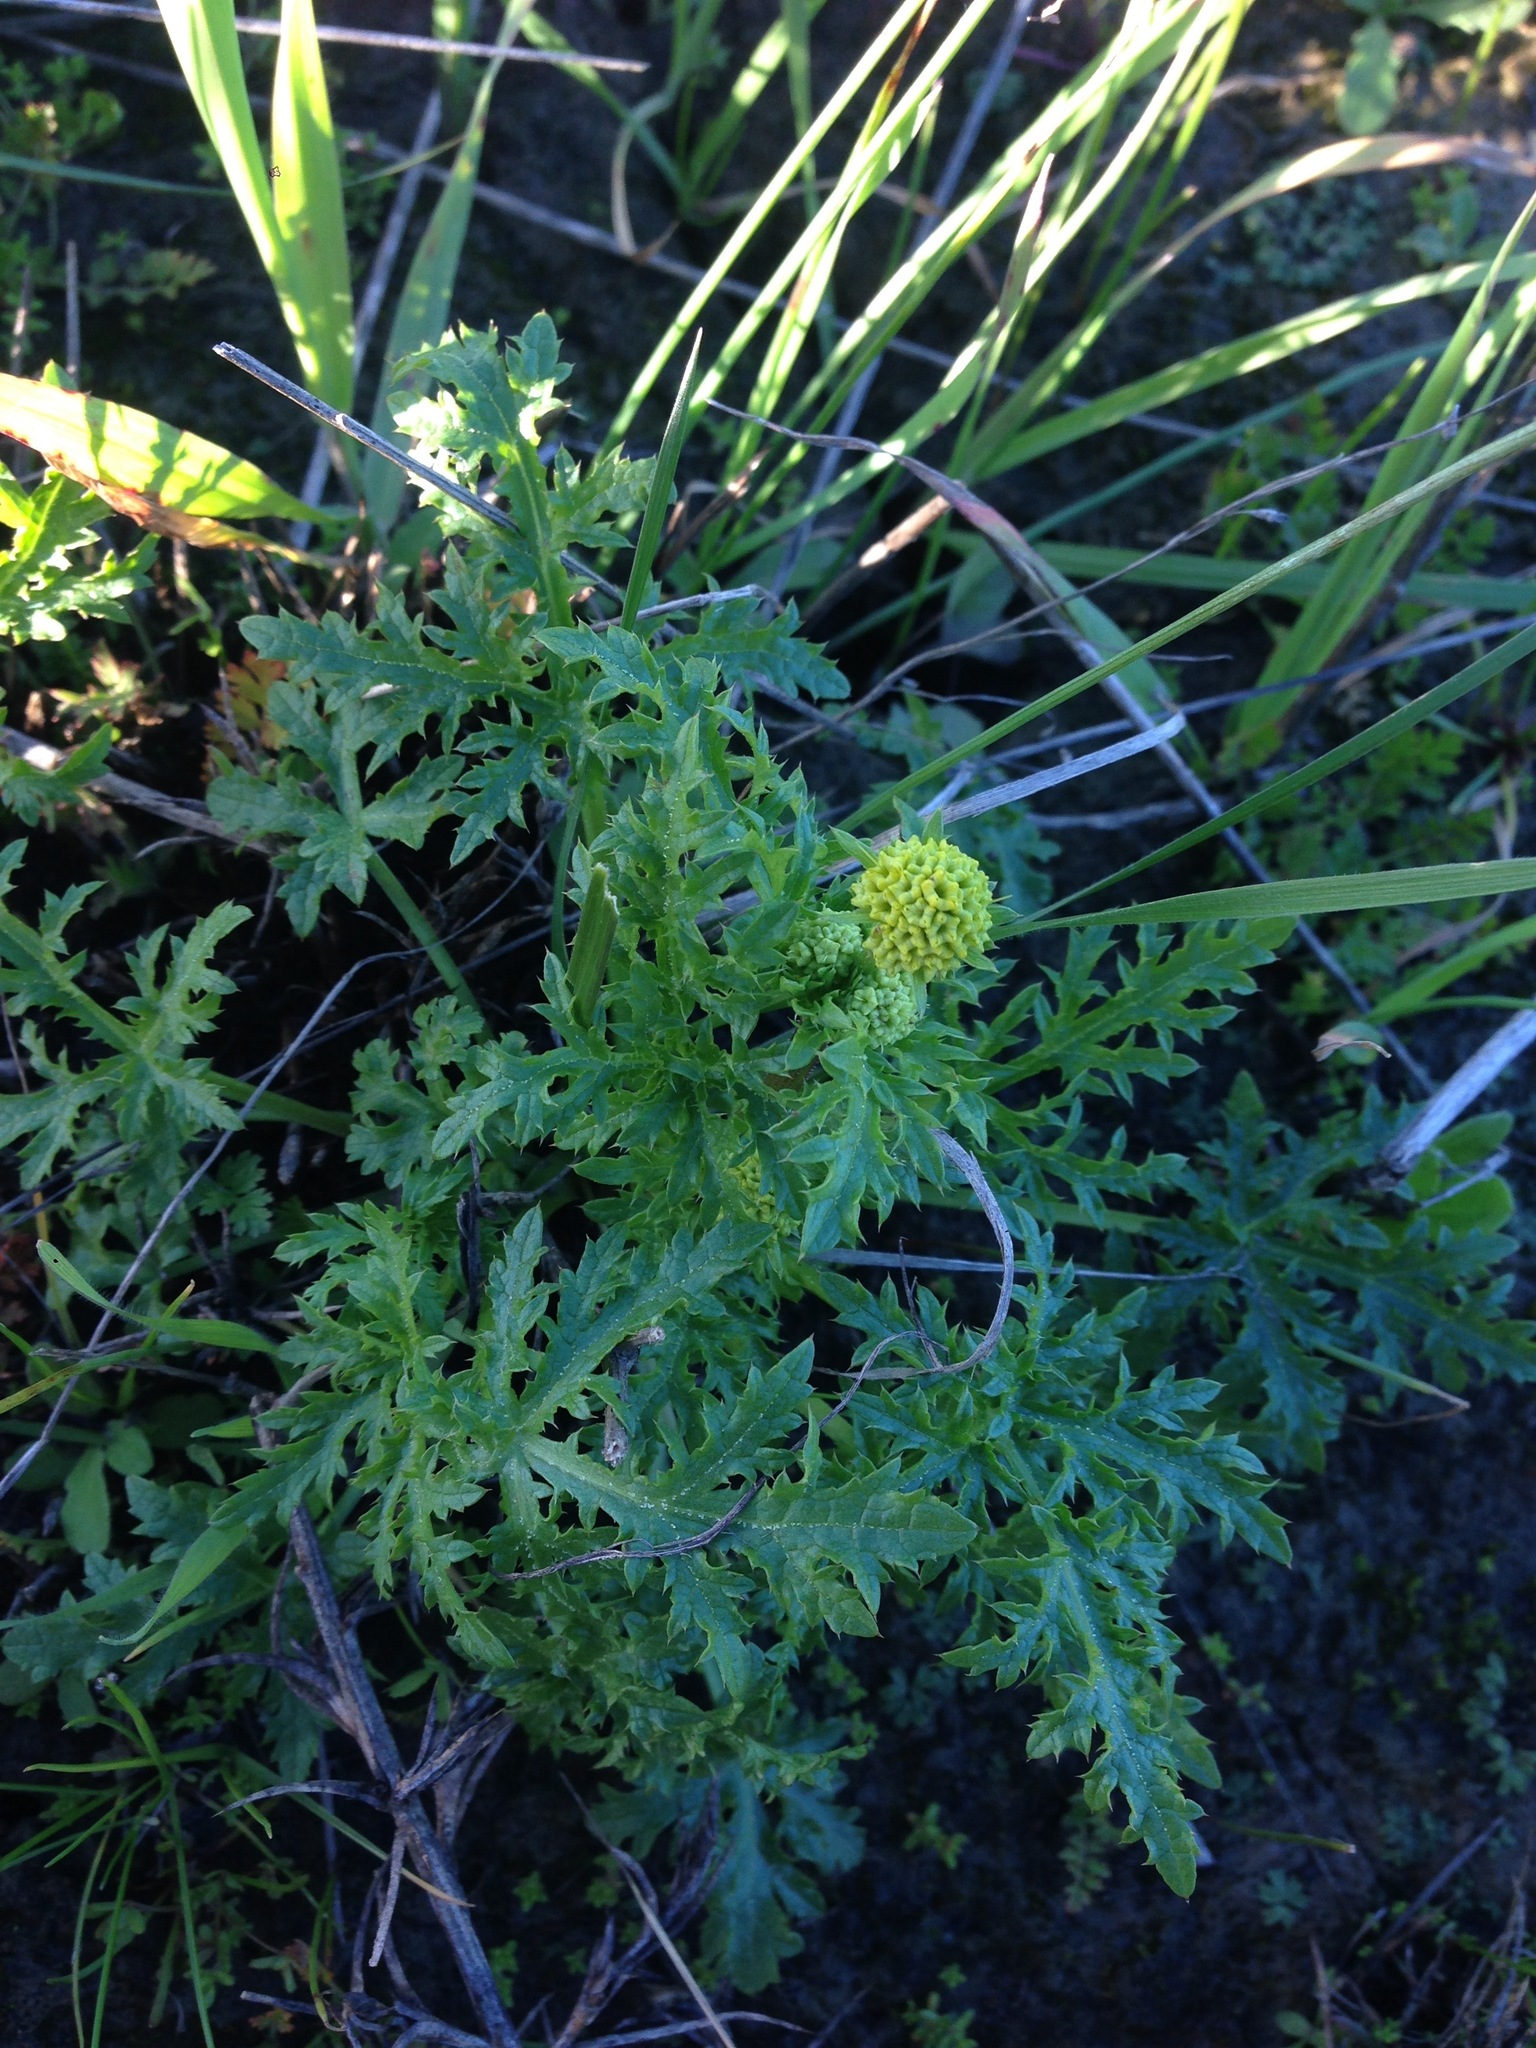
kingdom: Plantae
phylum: Tracheophyta
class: Magnoliopsida
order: Apiales
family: Apiaceae
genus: Sanicula
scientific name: Sanicula arguta
